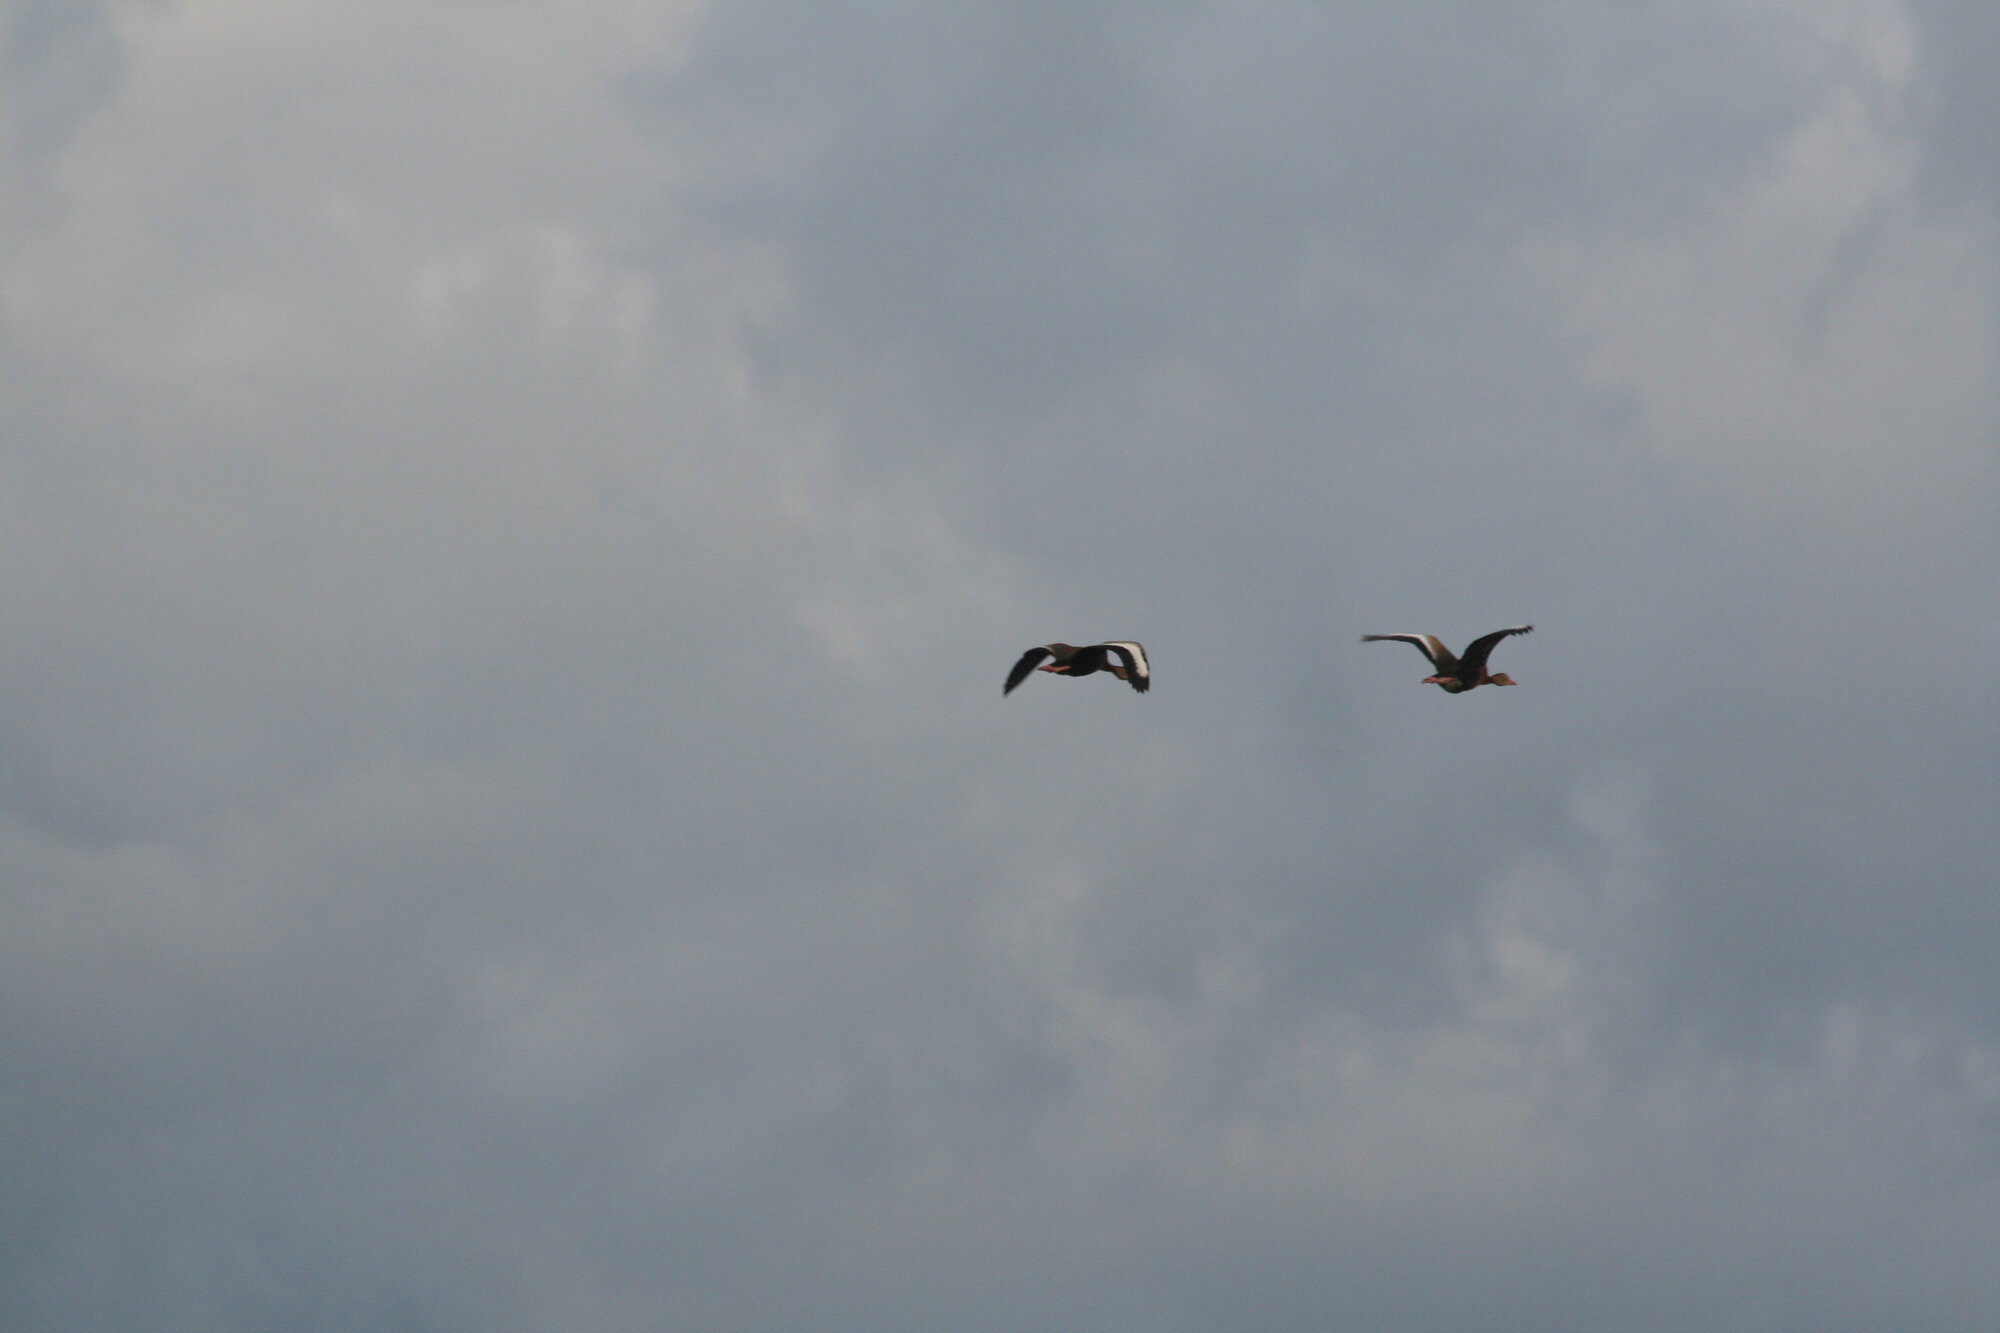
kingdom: Animalia
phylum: Chordata
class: Aves
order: Anseriformes
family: Anatidae
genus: Dendrocygna
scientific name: Dendrocygna autumnalis
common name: Black-bellied whistling duck
